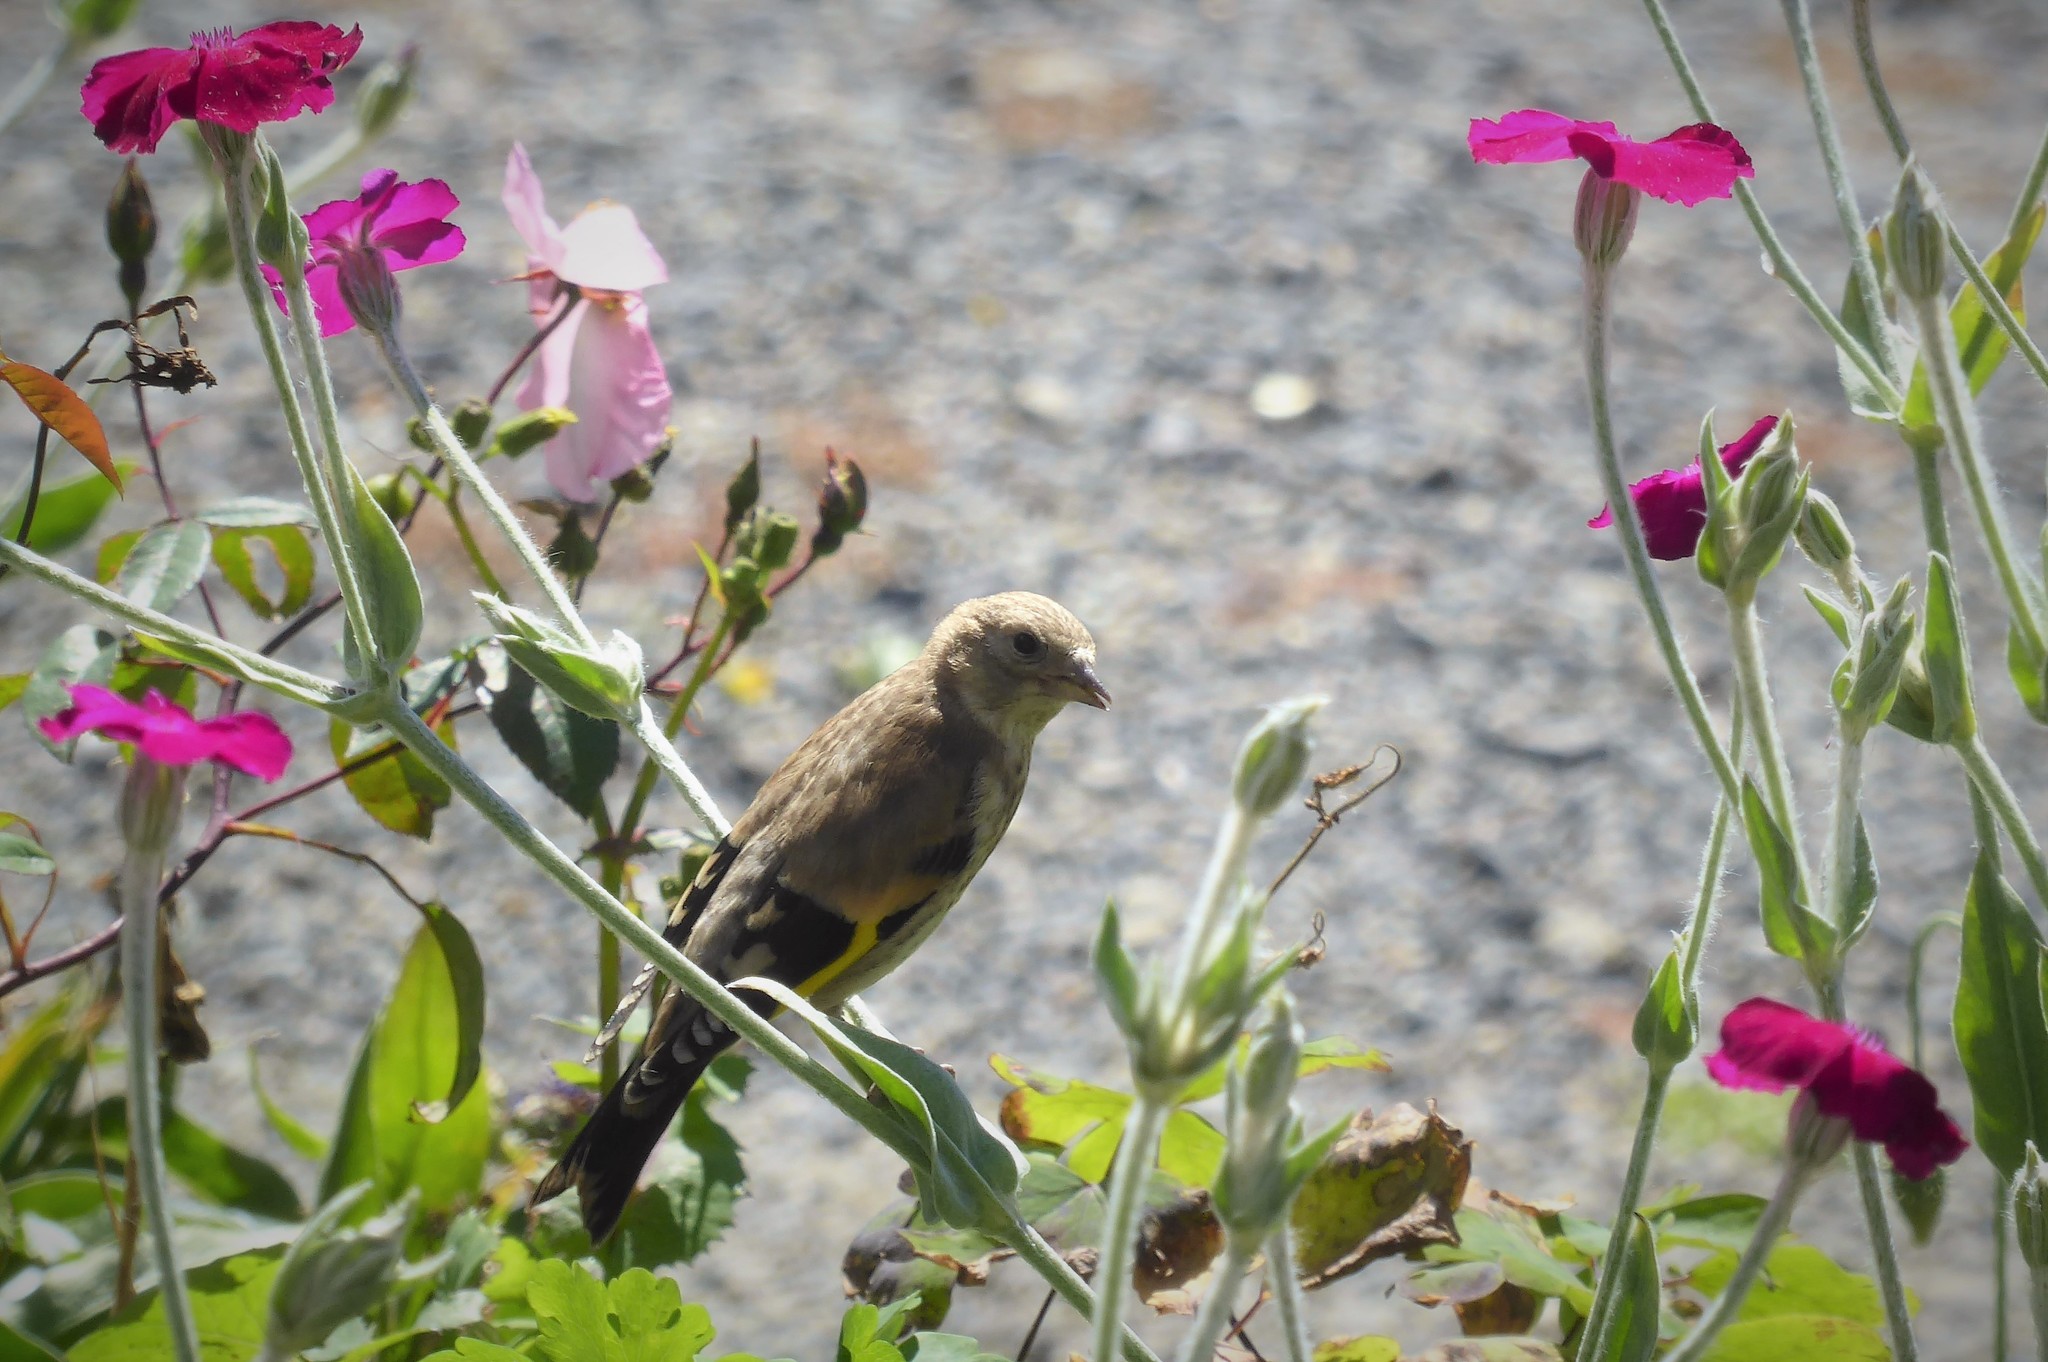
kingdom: Animalia
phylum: Chordata
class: Aves
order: Passeriformes
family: Fringillidae
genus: Carduelis
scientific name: Carduelis carduelis
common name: European goldfinch
